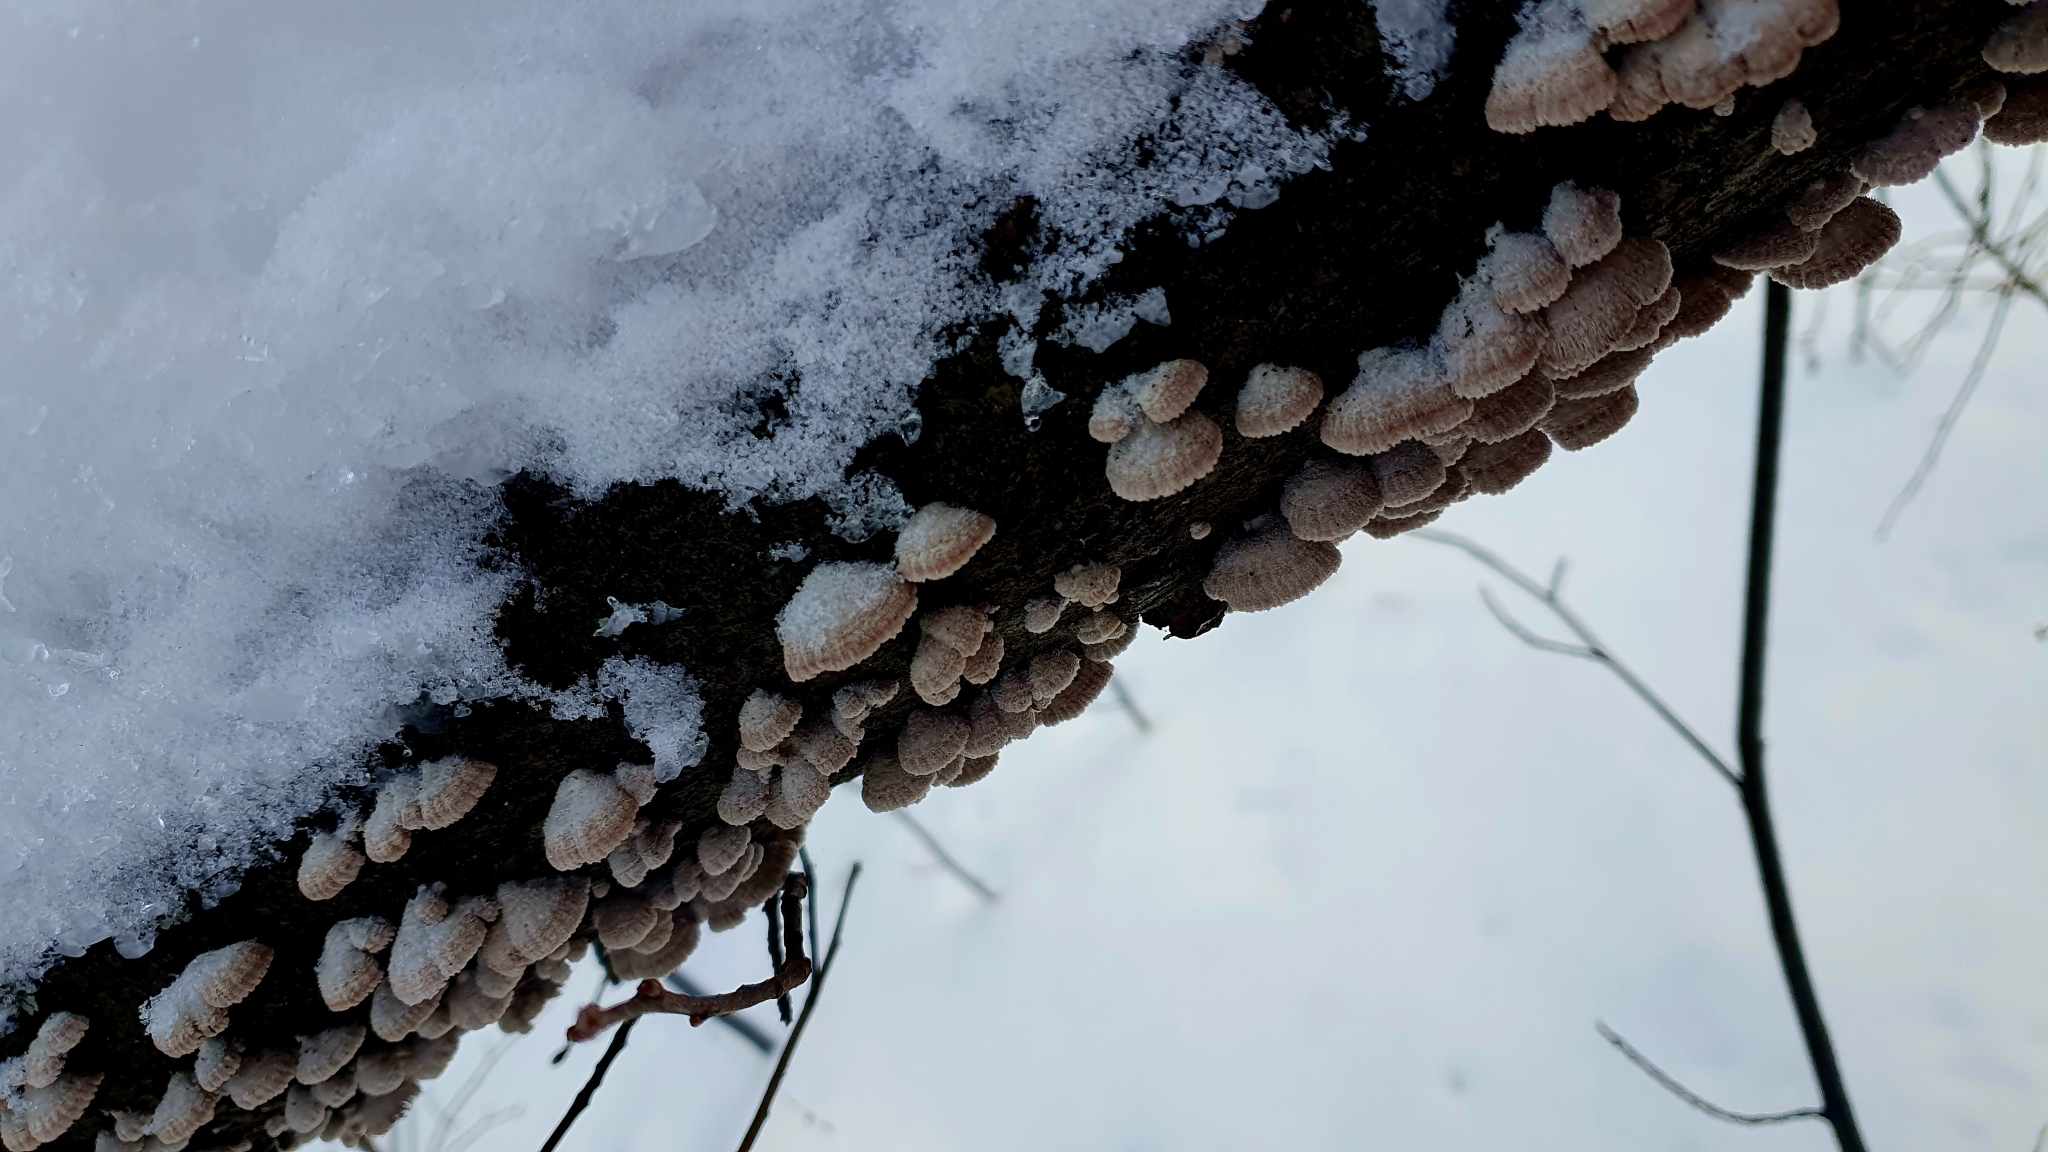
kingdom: Fungi
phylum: Basidiomycota
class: Agaricomycetes
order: Agaricales
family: Schizophyllaceae
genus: Schizophyllum
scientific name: Schizophyllum commune
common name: Common porecrust
